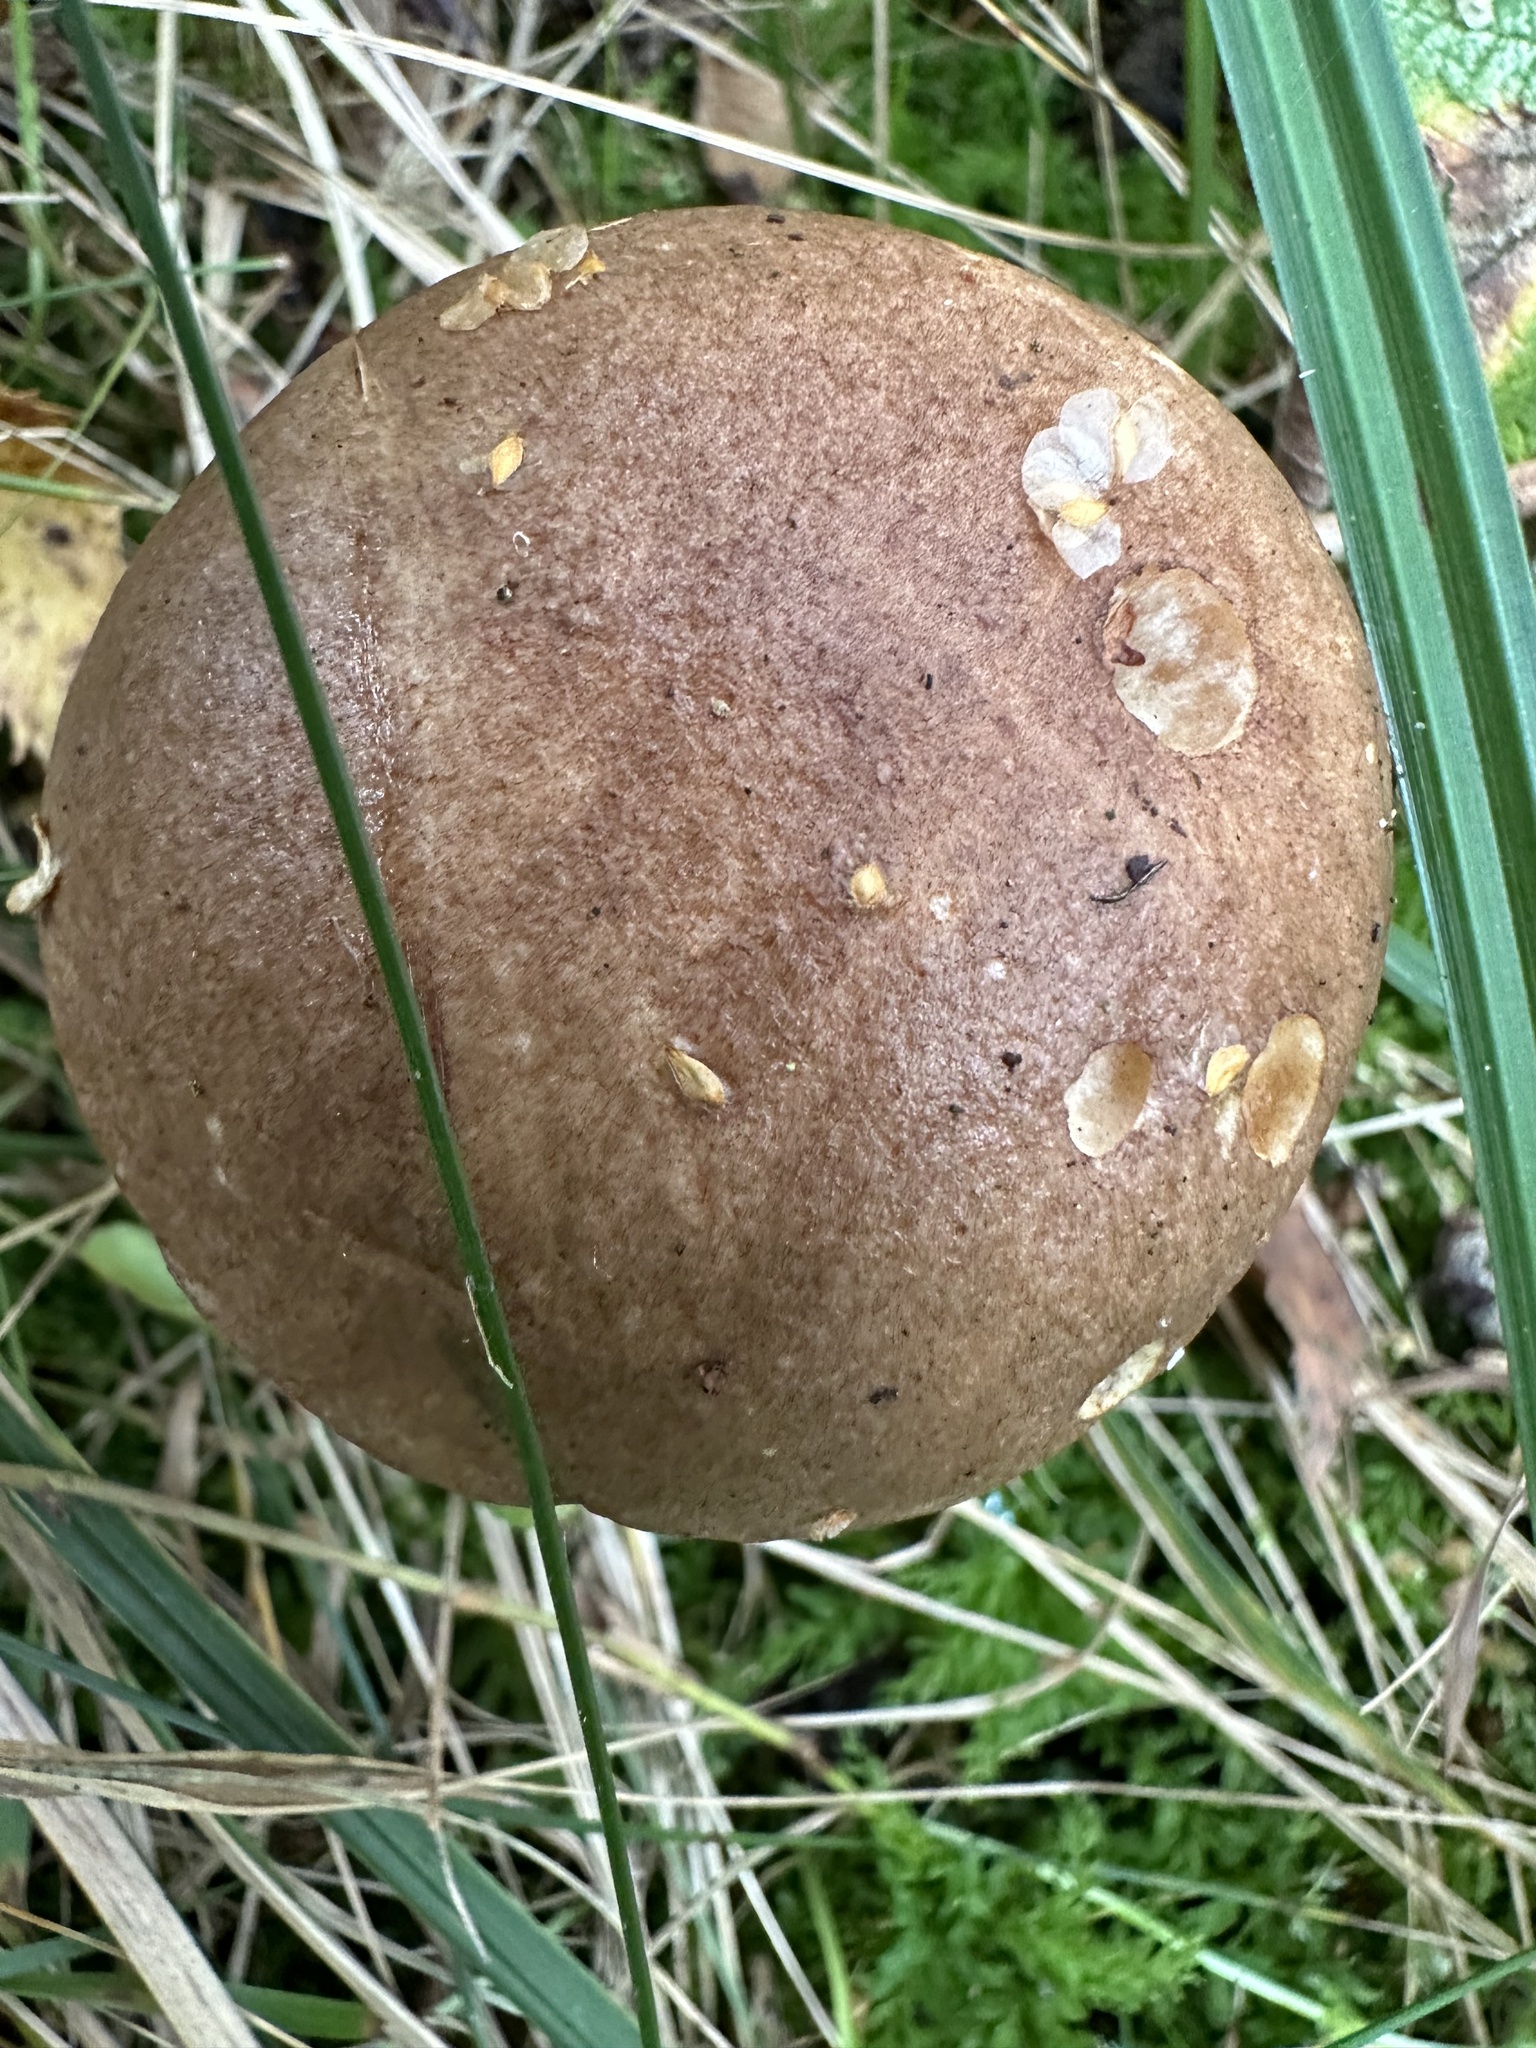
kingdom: Fungi
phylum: Basidiomycota
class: Agaricomycetes
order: Boletales
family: Boletaceae
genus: Leccinum
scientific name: Leccinum scabrum
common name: Blushing bolete
